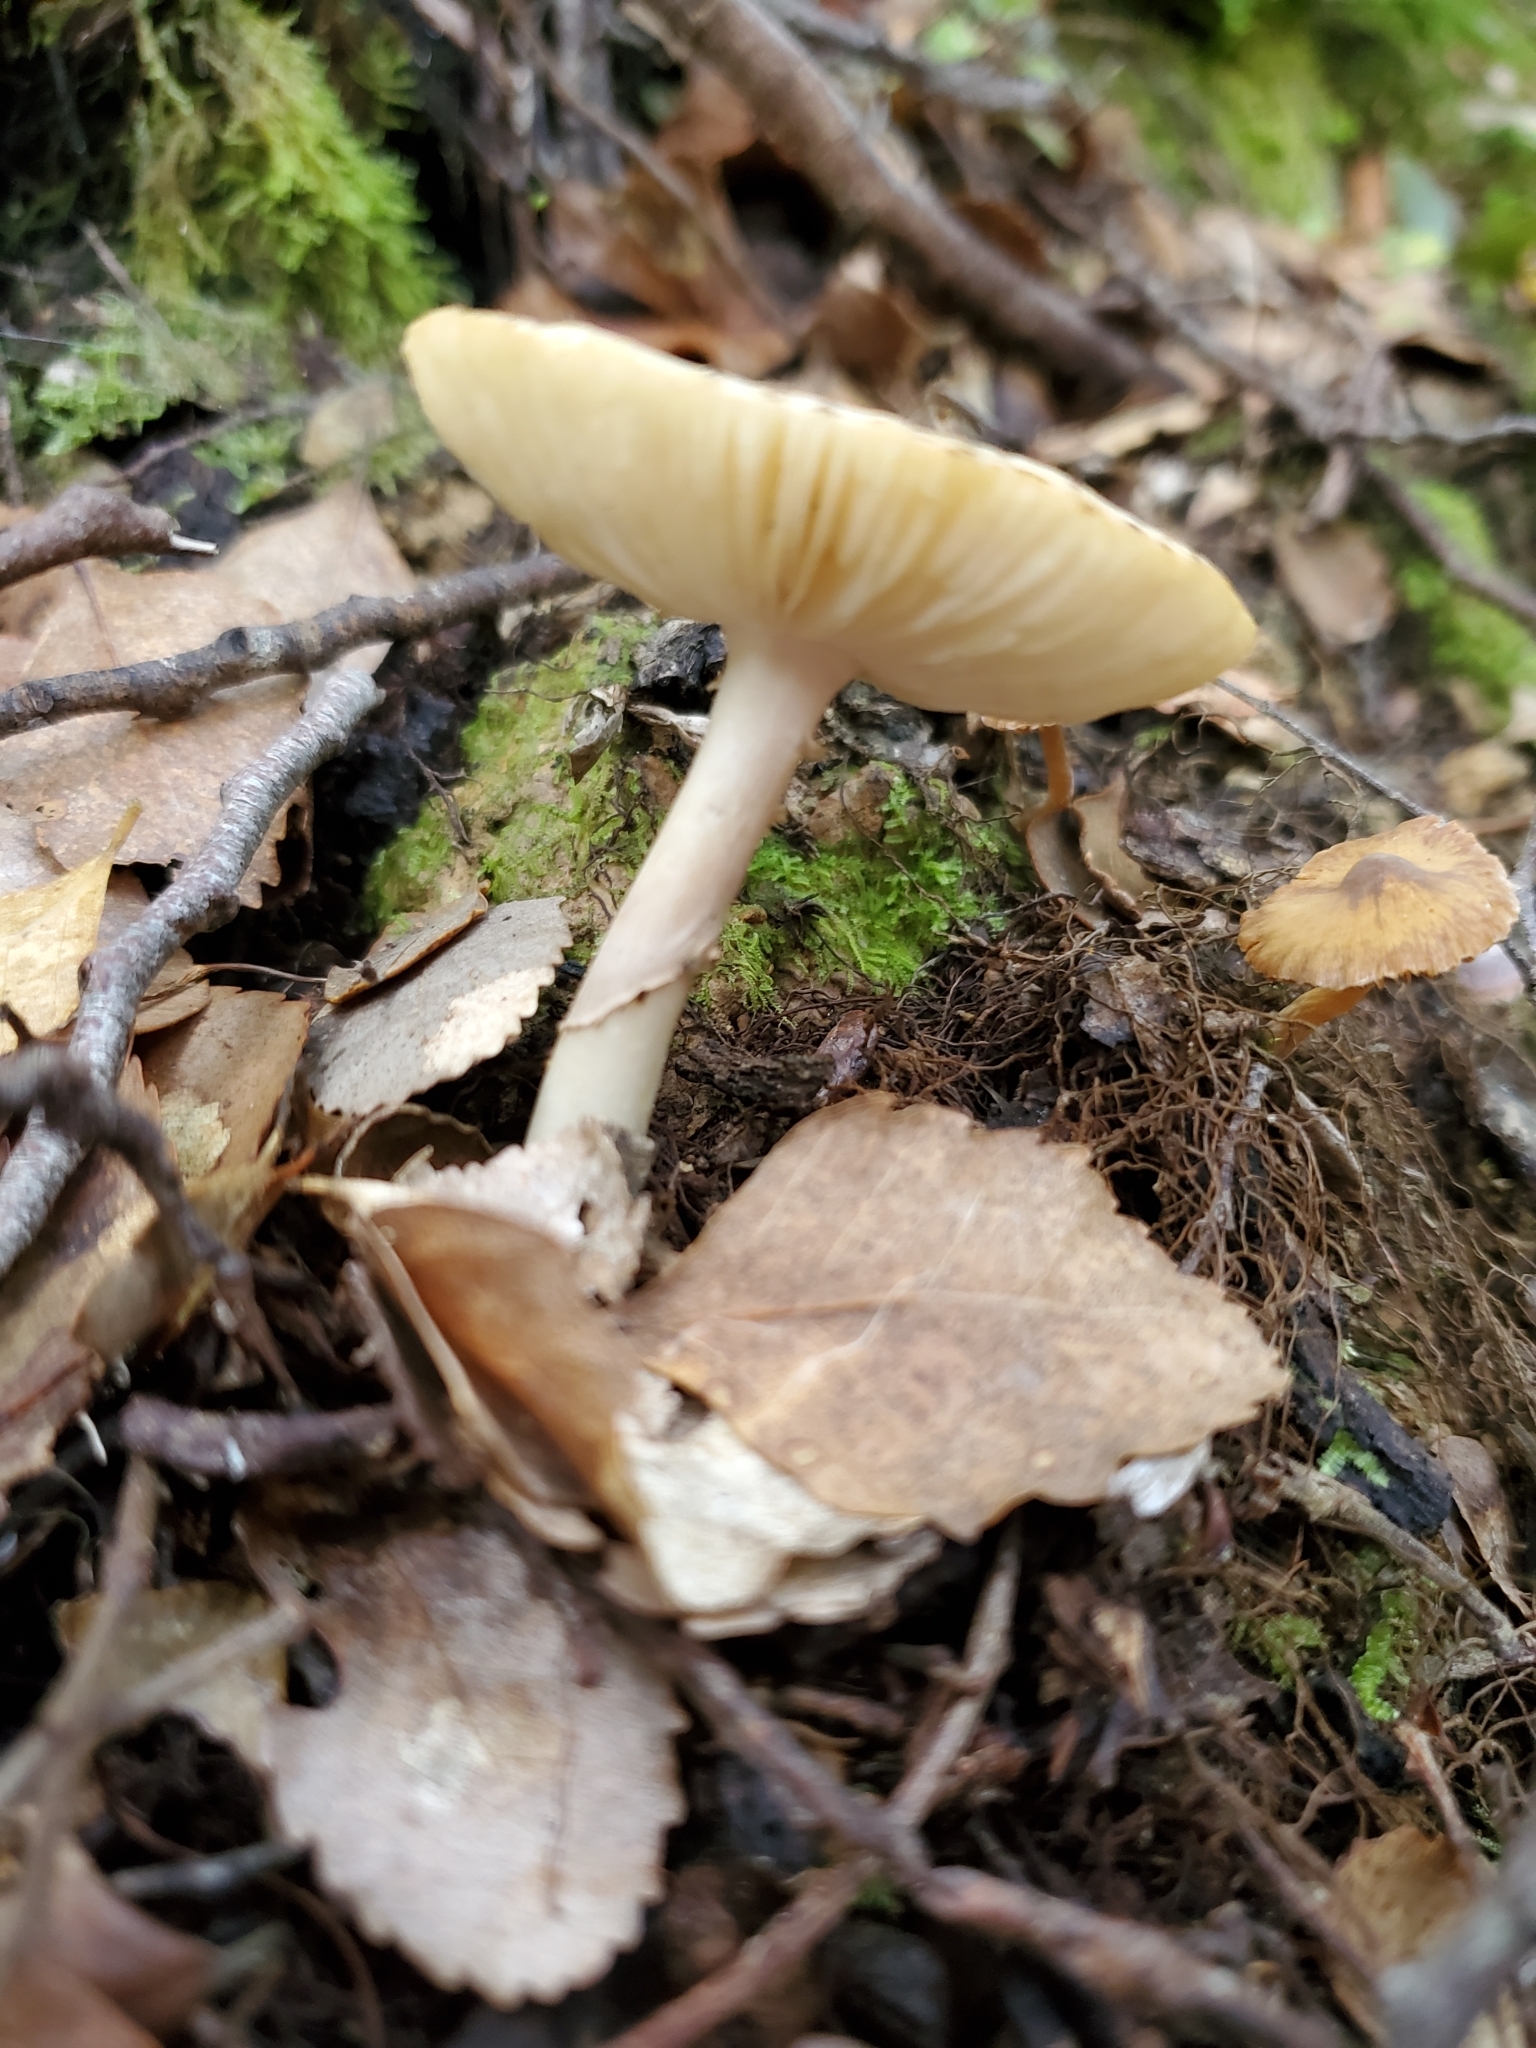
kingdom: Fungi
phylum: Basidiomycota
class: Agaricomycetes
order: Agaricales
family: Amanitaceae
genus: Amanita
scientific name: Amanita australis
